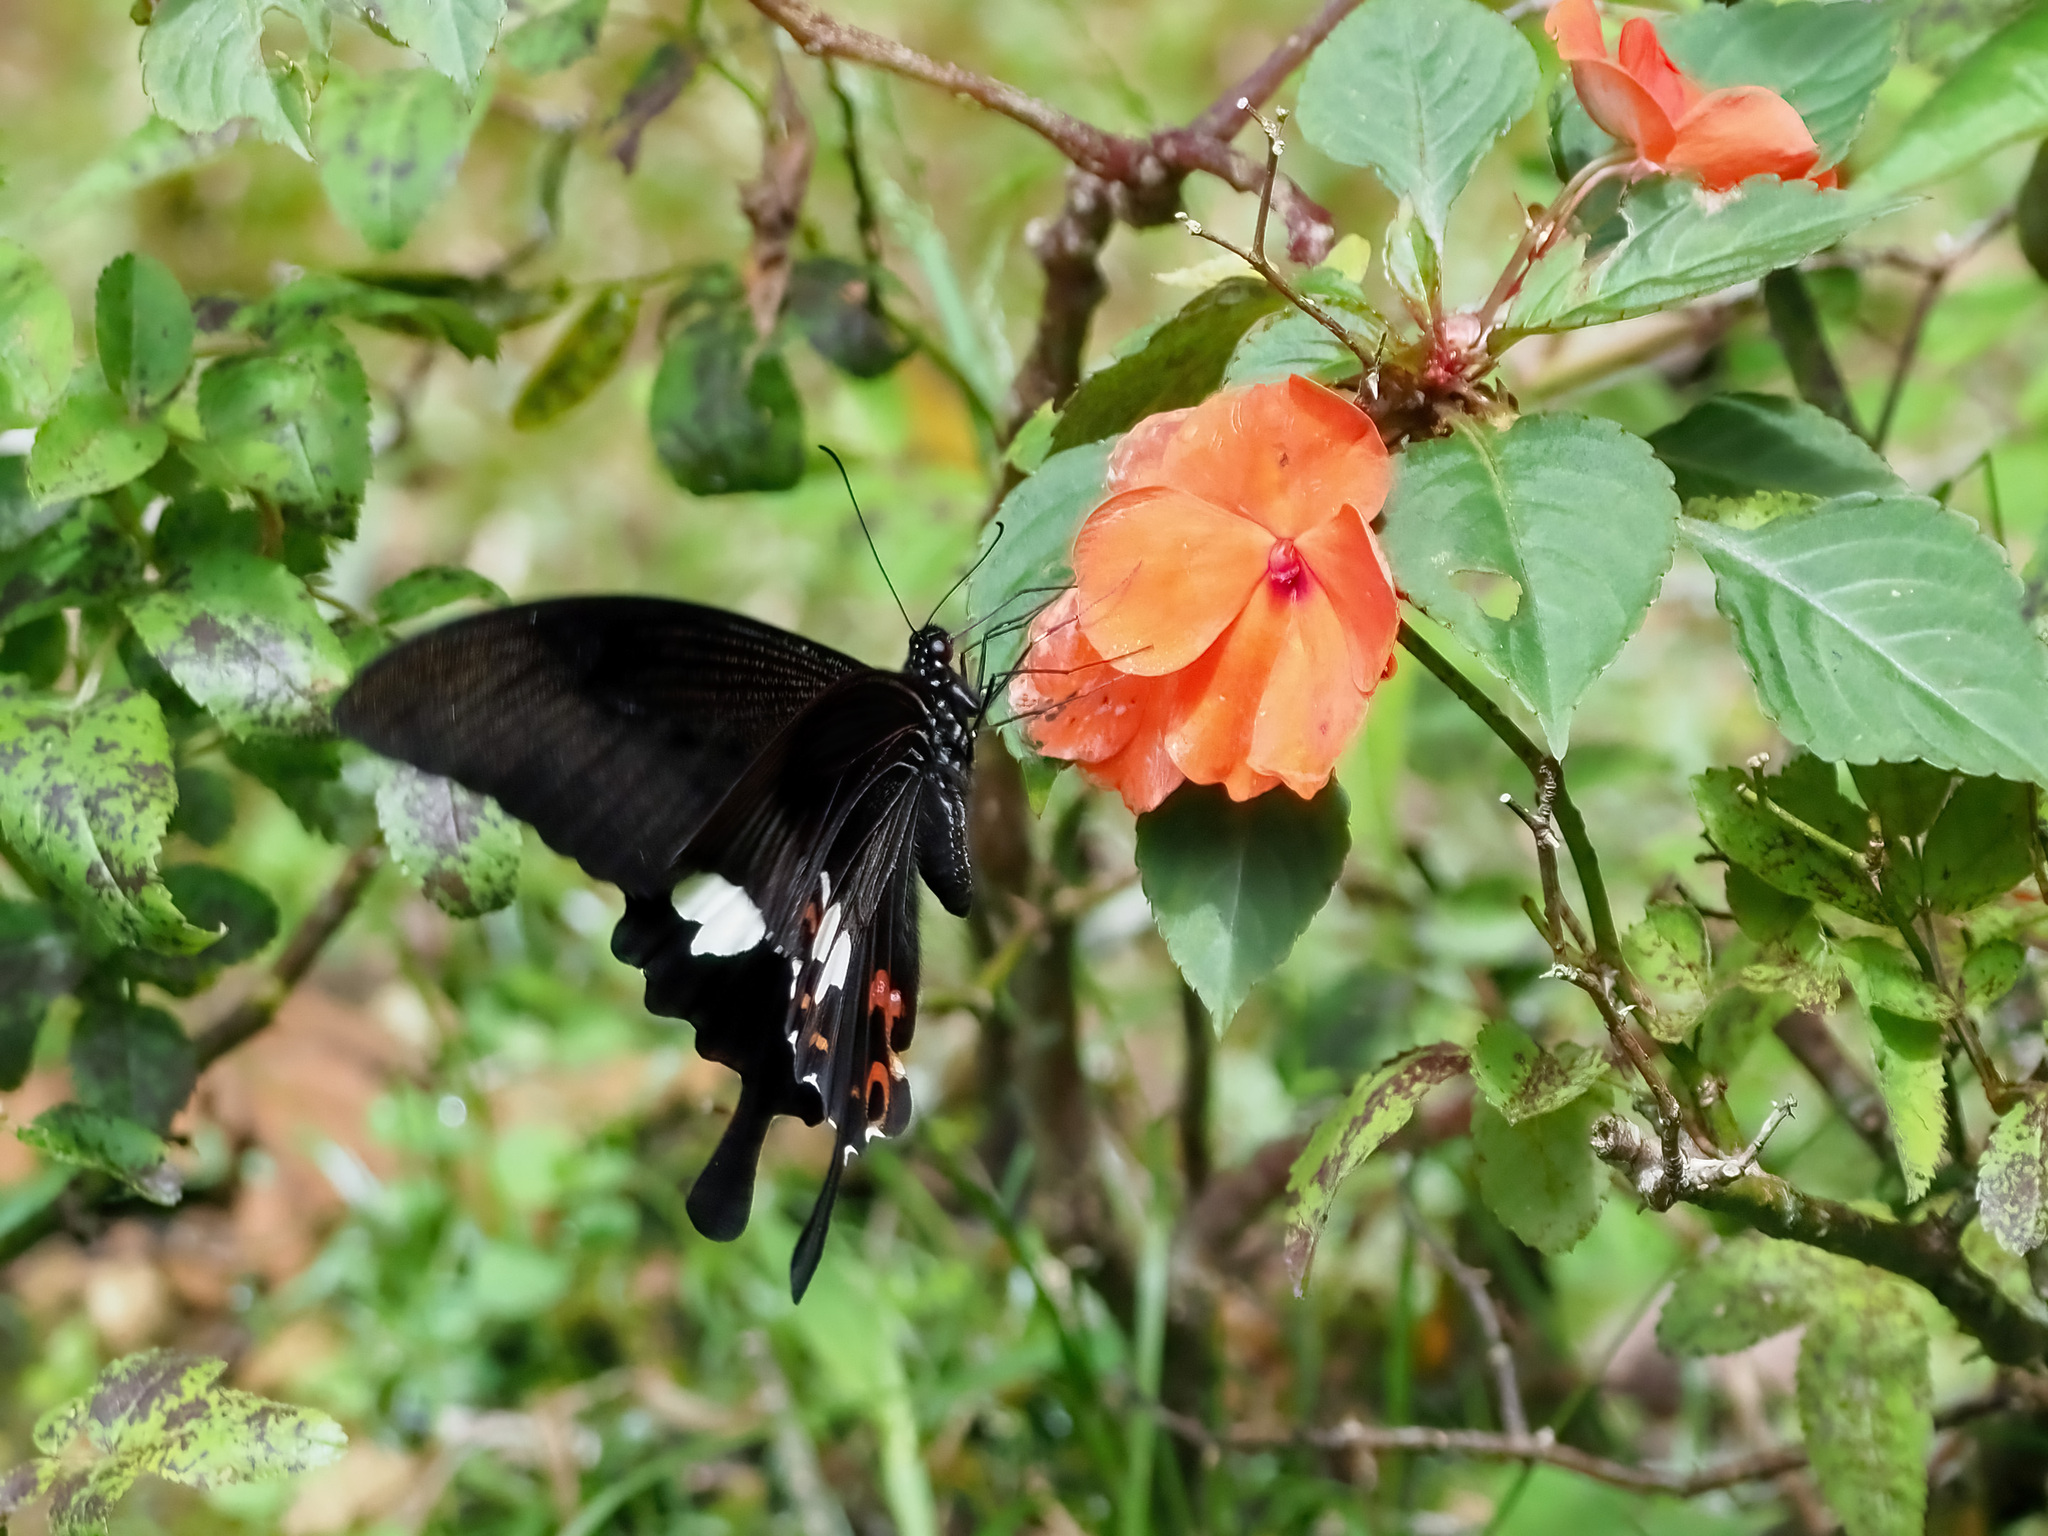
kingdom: Animalia
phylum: Arthropoda
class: Insecta
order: Lepidoptera
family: Papilionidae
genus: Papilio
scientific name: Papilio helenus
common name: Red helen
